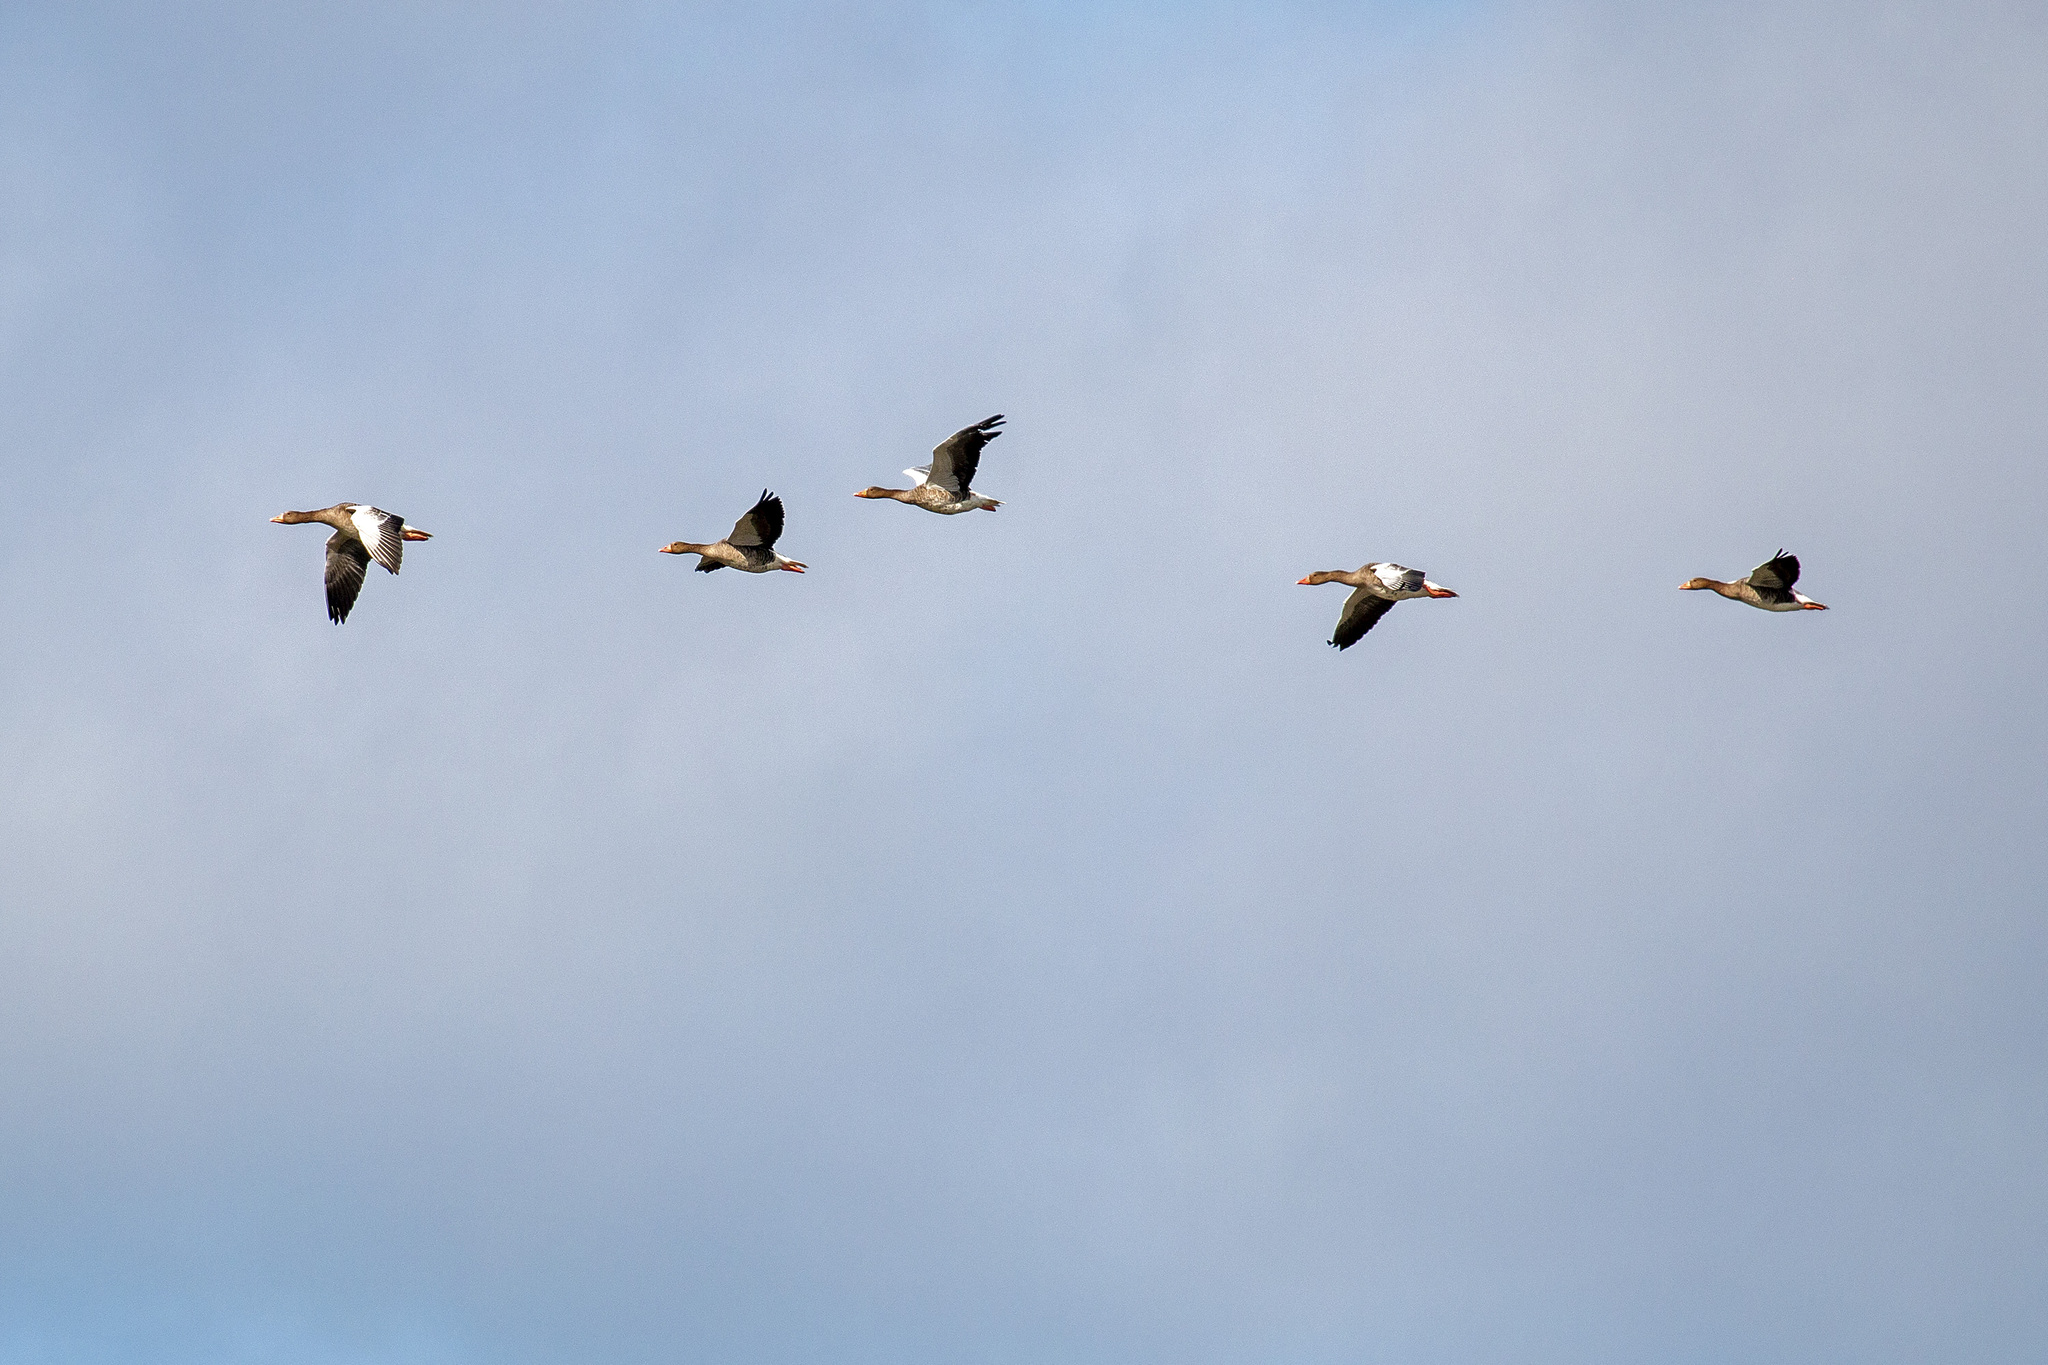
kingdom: Animalia
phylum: Chordata
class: Aves
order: Anseriformes
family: Anatidae
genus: Anser
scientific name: Anser anser
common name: Greylag goose
